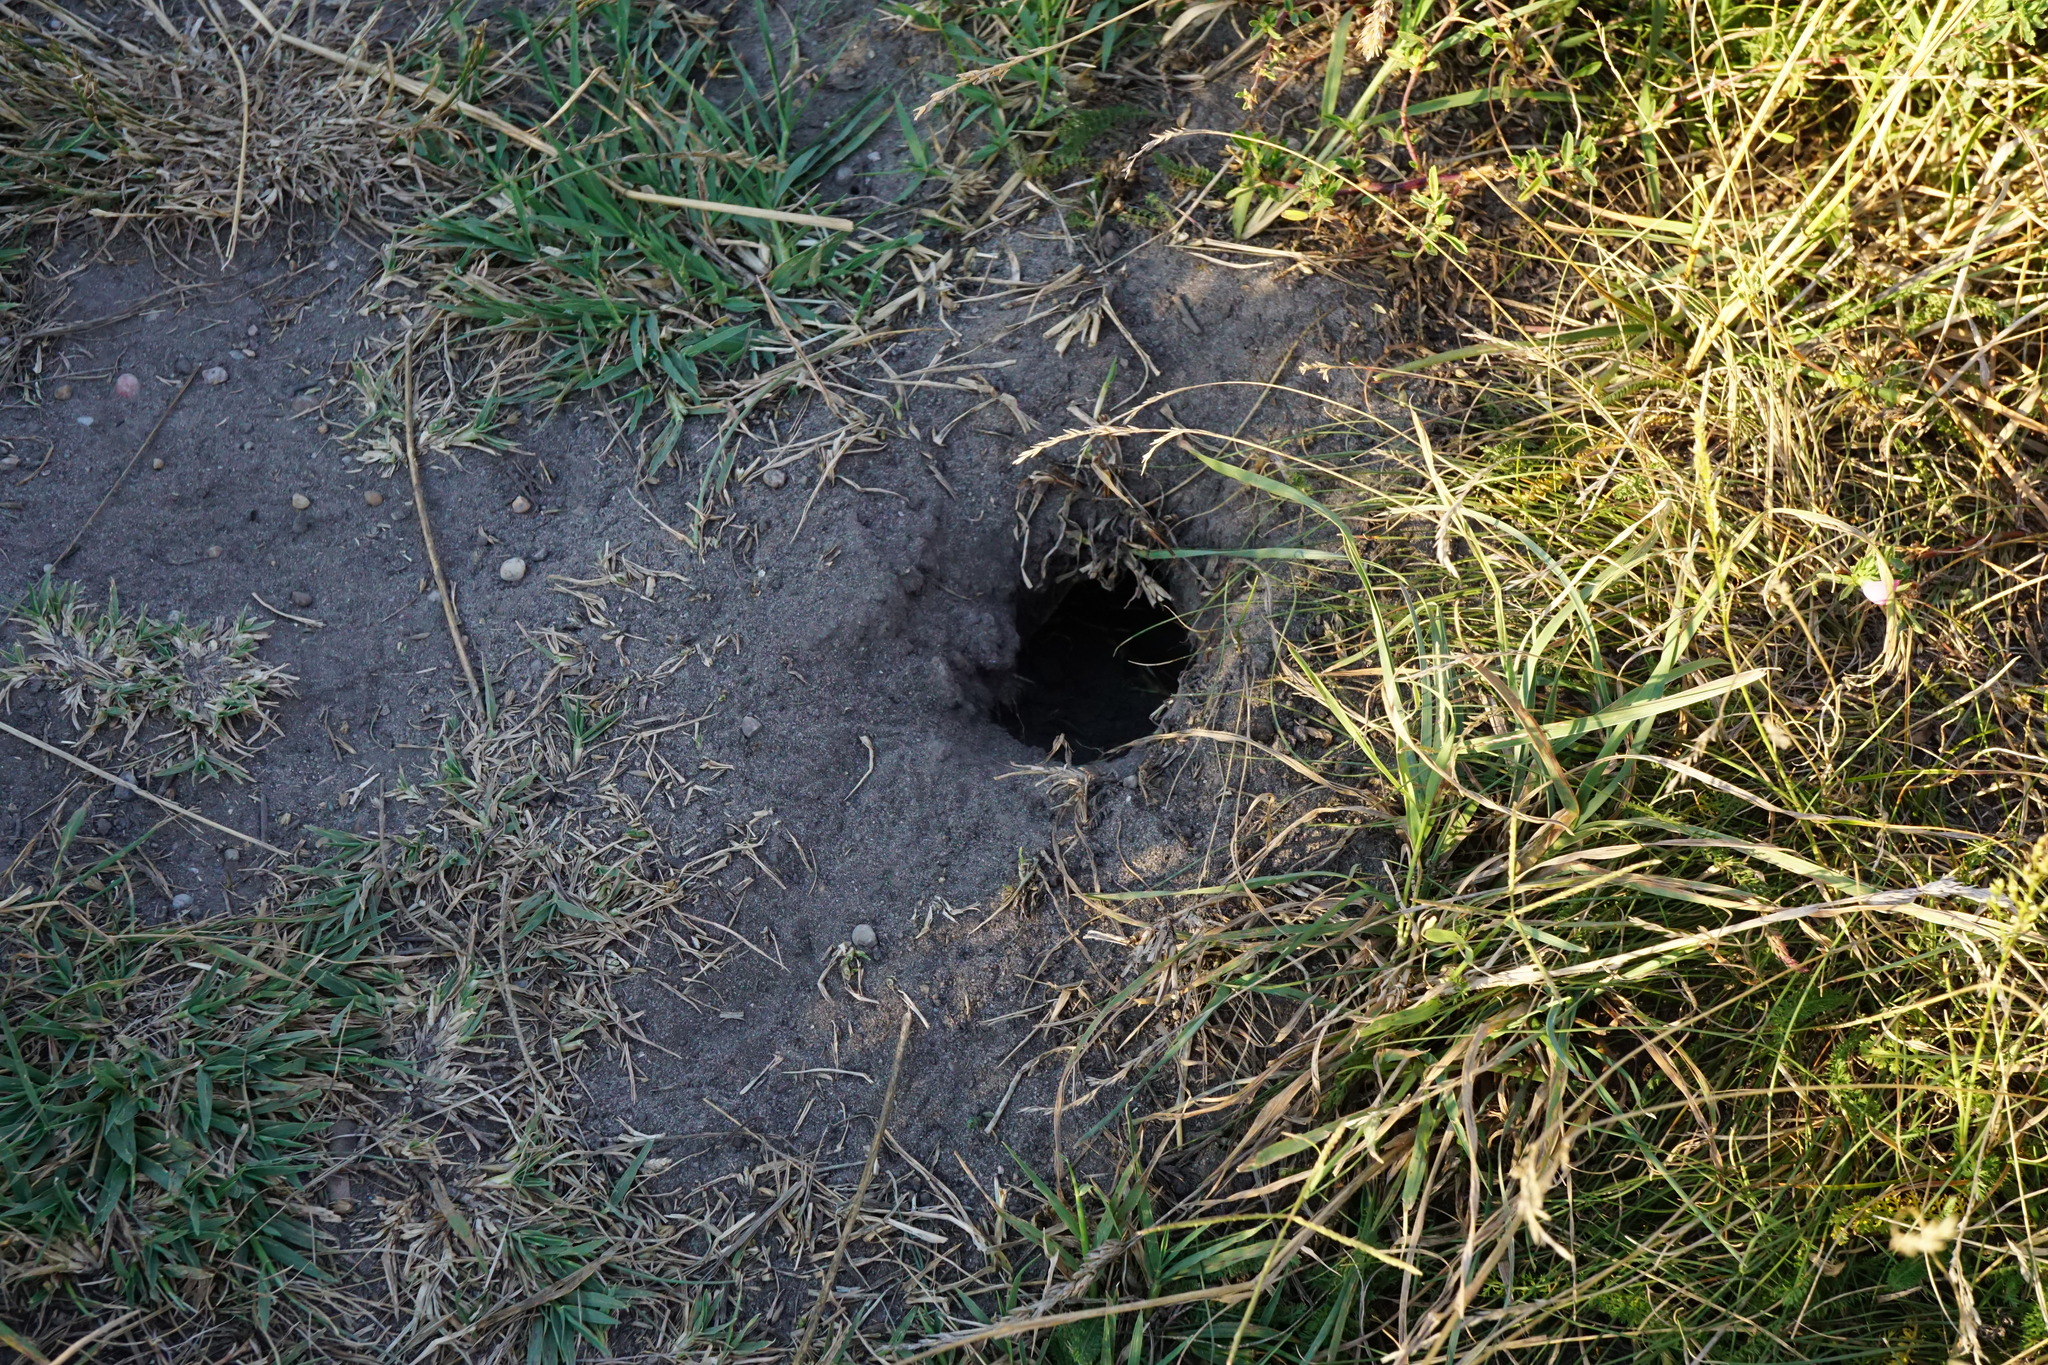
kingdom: Animalia
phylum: Chordata
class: Mammalia
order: Rodentia
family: Sciuridae
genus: Spermophilus
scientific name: Spermophilus citellus
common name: European ground squirrel
